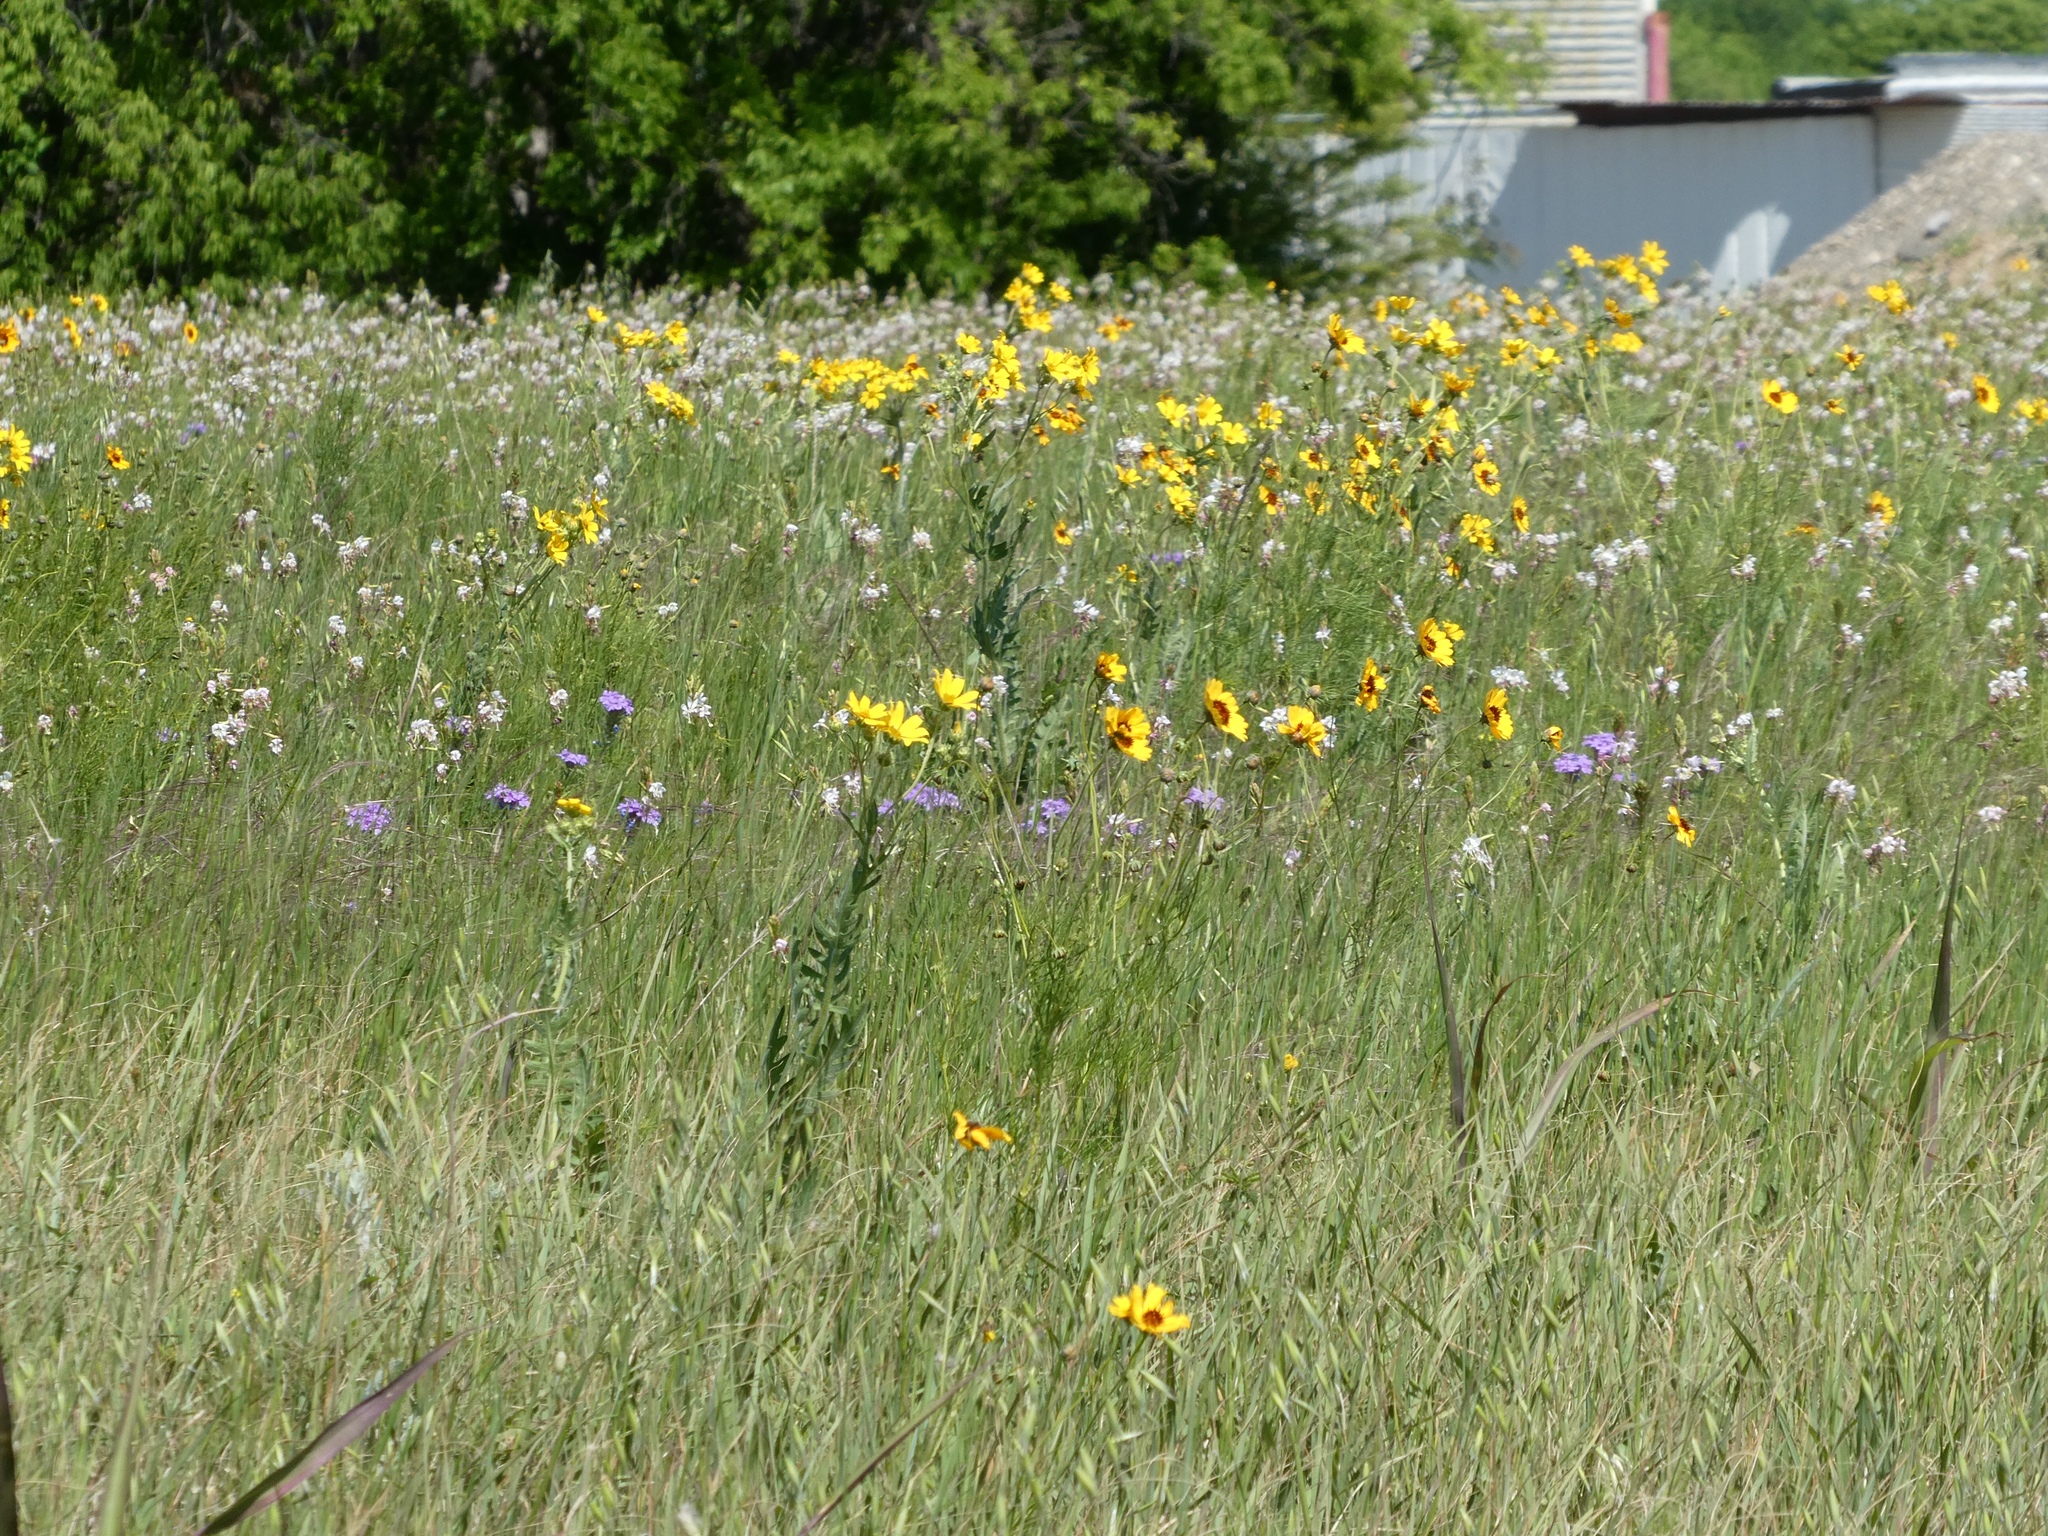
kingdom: Plantae
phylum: Tracheophyta
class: Magnoliopsida
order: Asterales
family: Asteraceae
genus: Thelesperma
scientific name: Thelesperma filifolium
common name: Stiff greenthread
